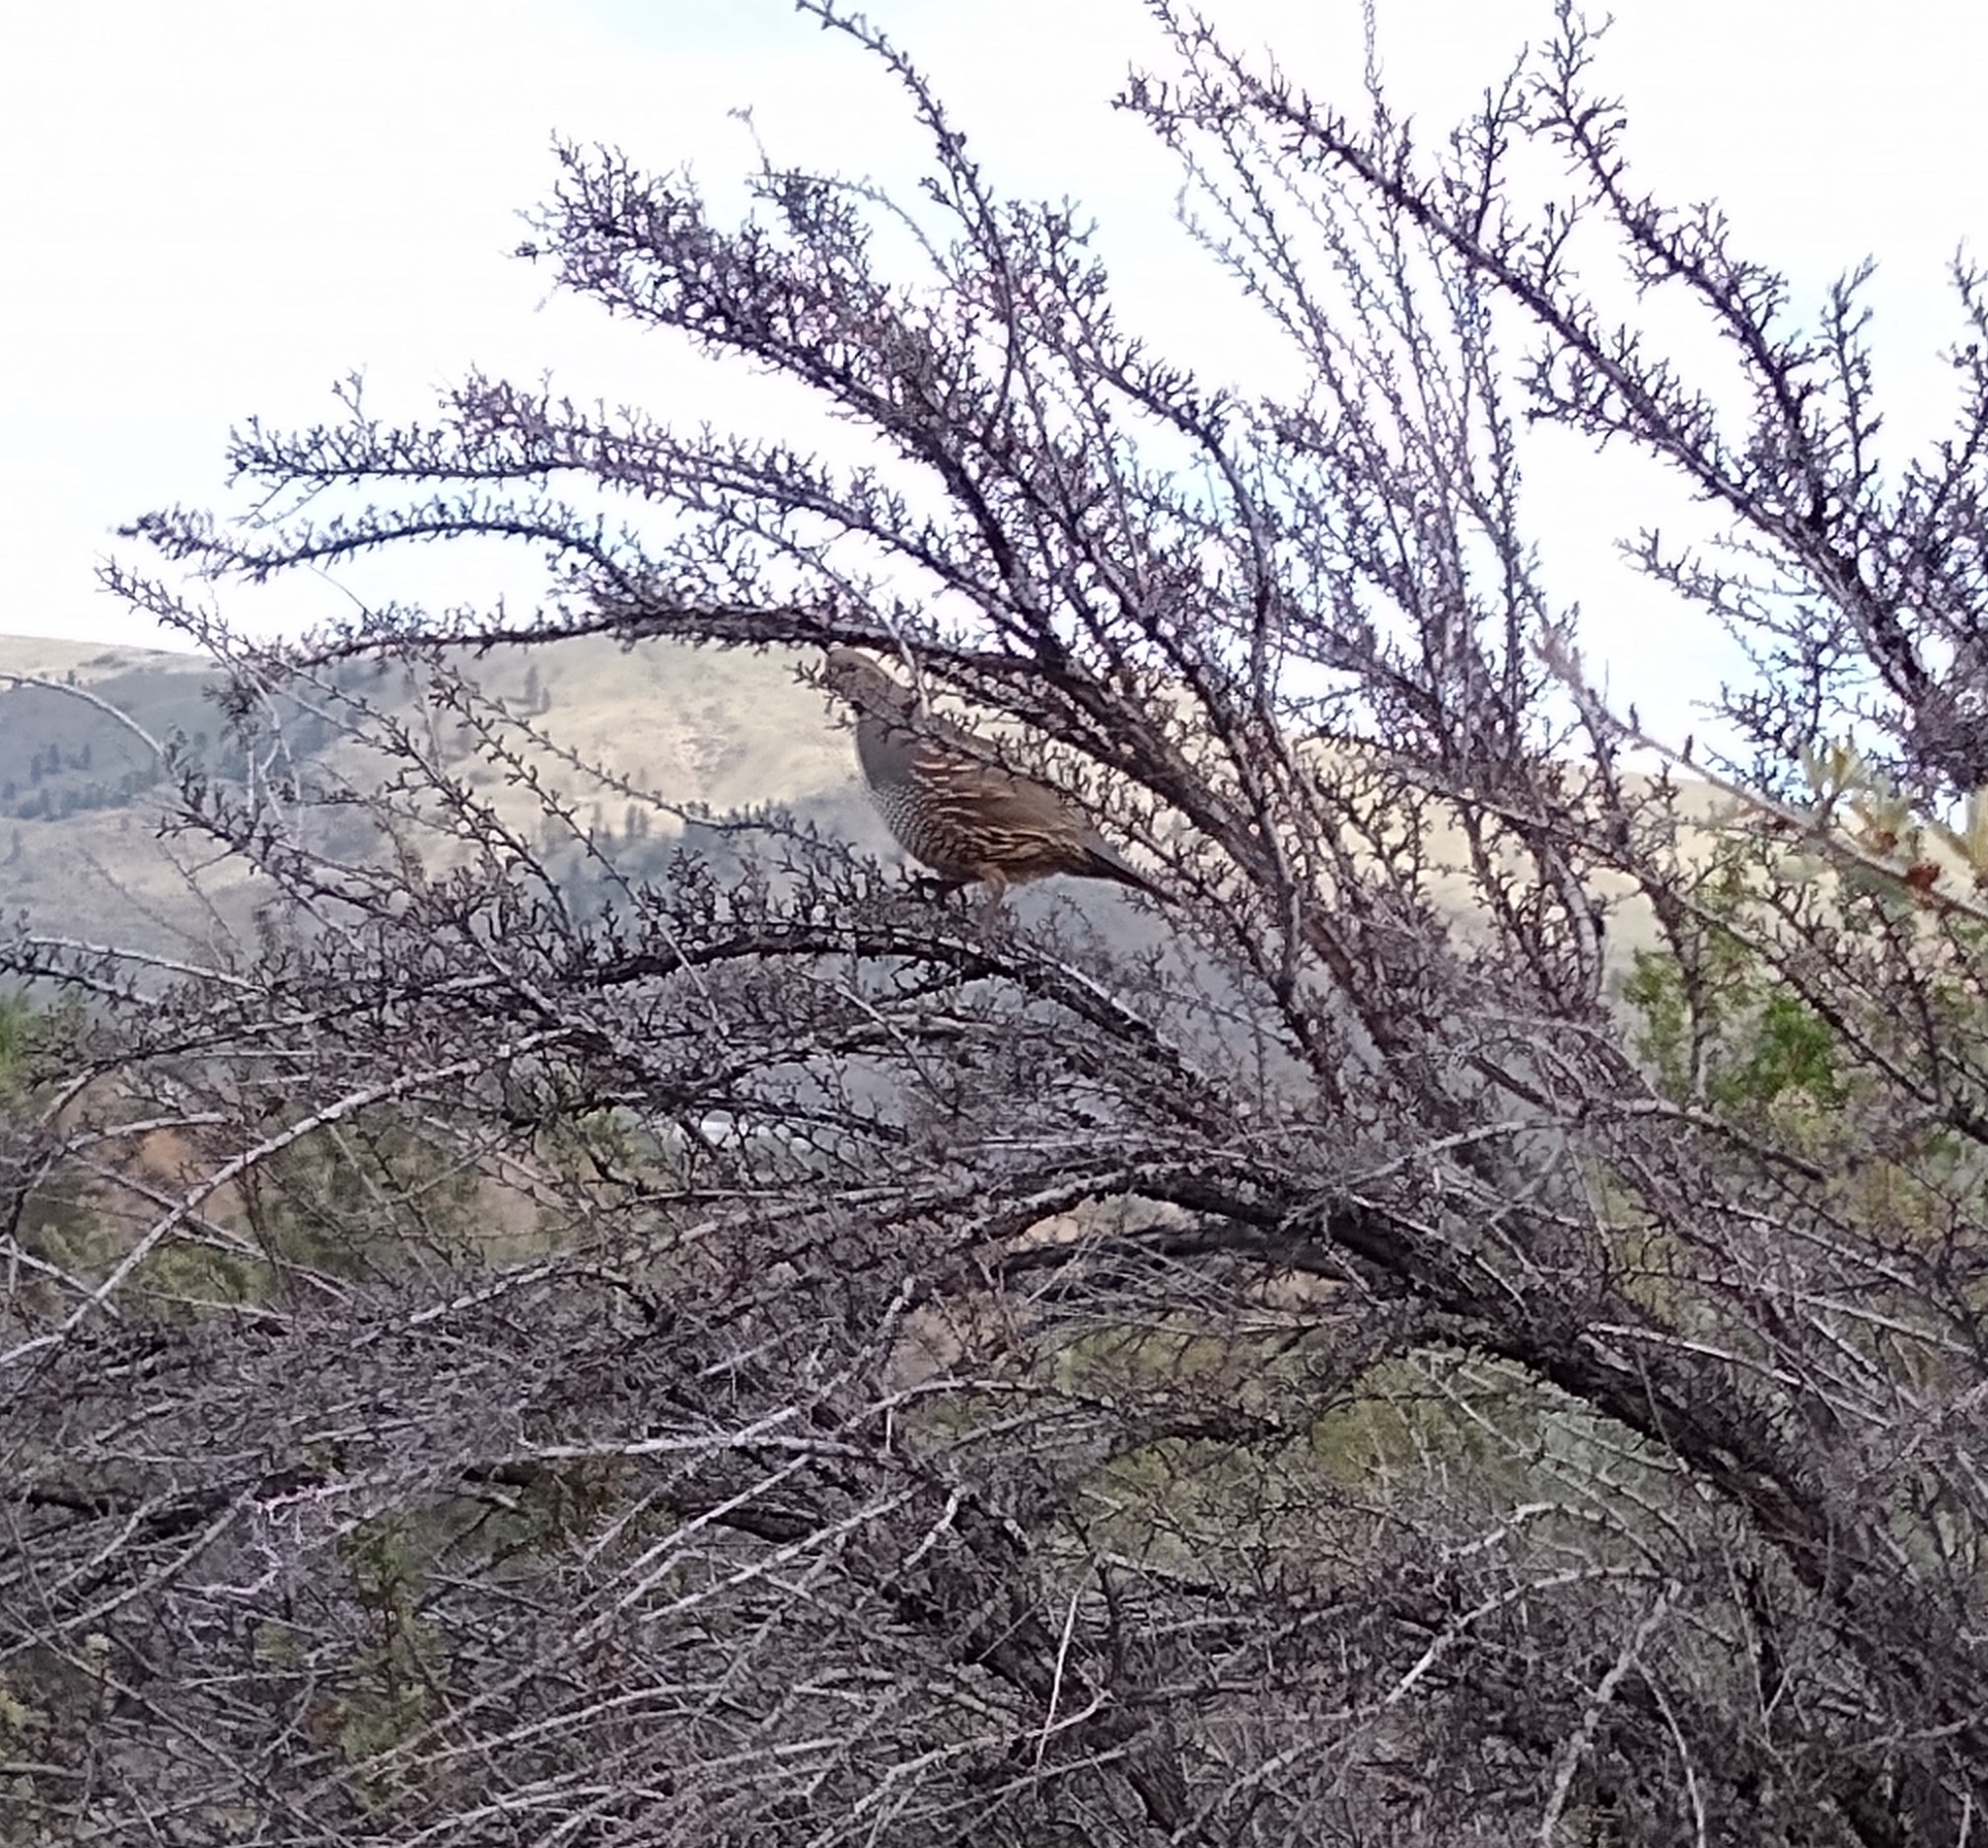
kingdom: Animalia
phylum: Chordata
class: Aves
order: Galliformes
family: Odontophoridae
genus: Callipepla
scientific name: Callipepla californica
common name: California quail
